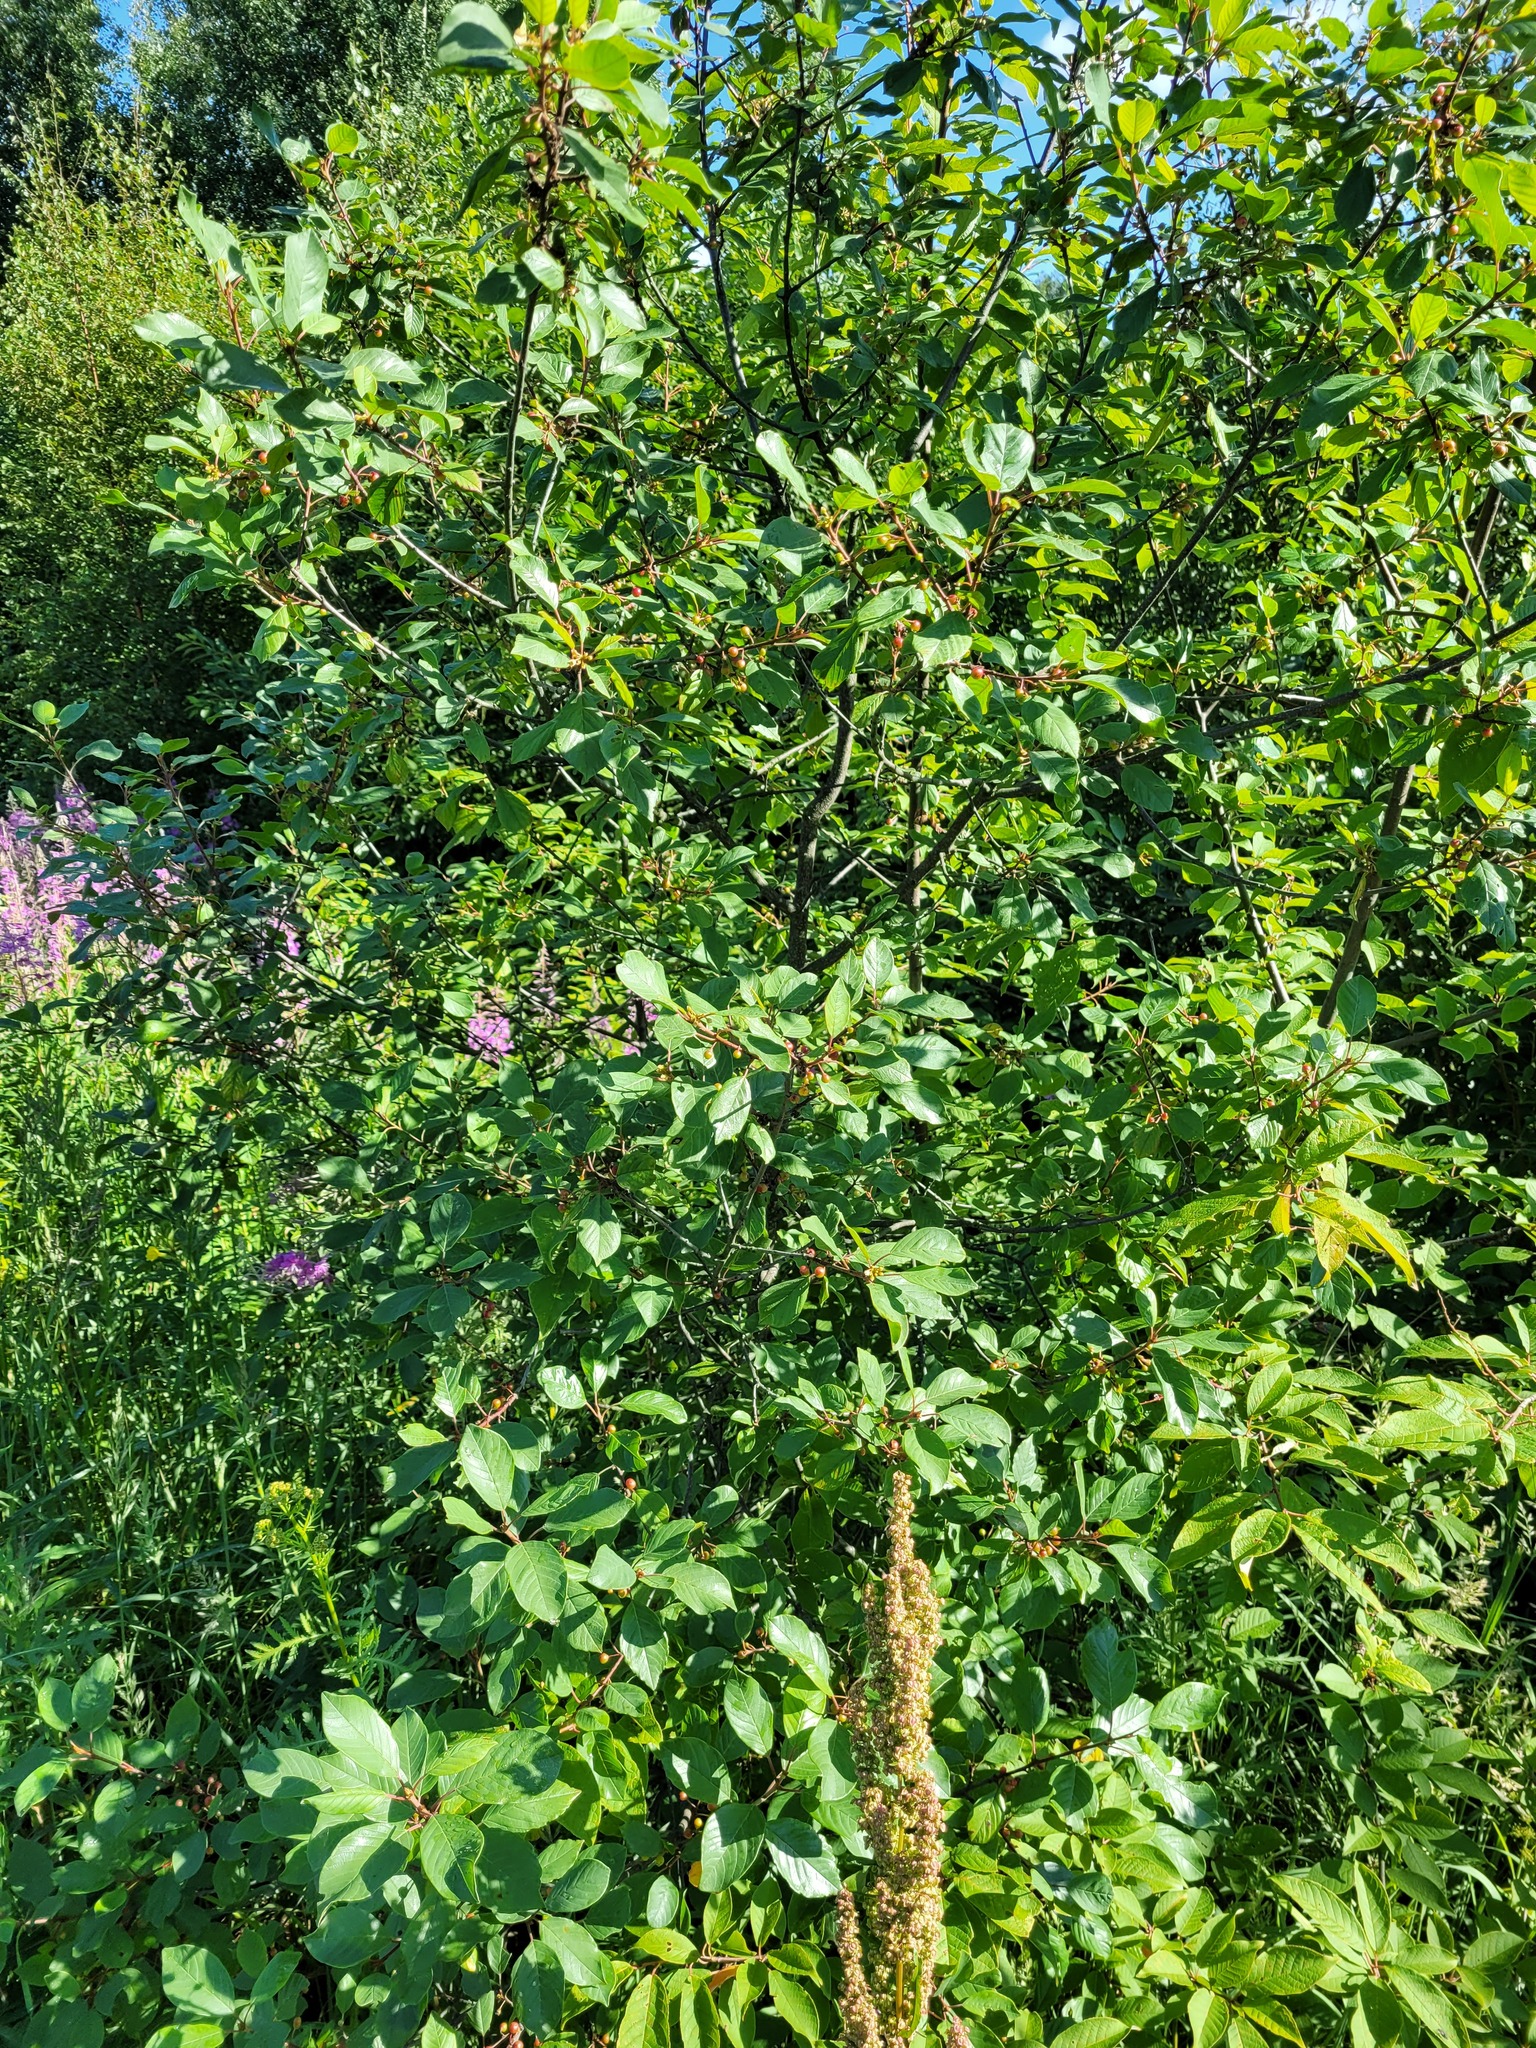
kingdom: Plantae
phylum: Tracheophyta
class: Magnoliopsida
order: Rosales
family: Rhamnaceae
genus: Frangula
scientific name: Frangula alnus
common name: Alder buckthorn
